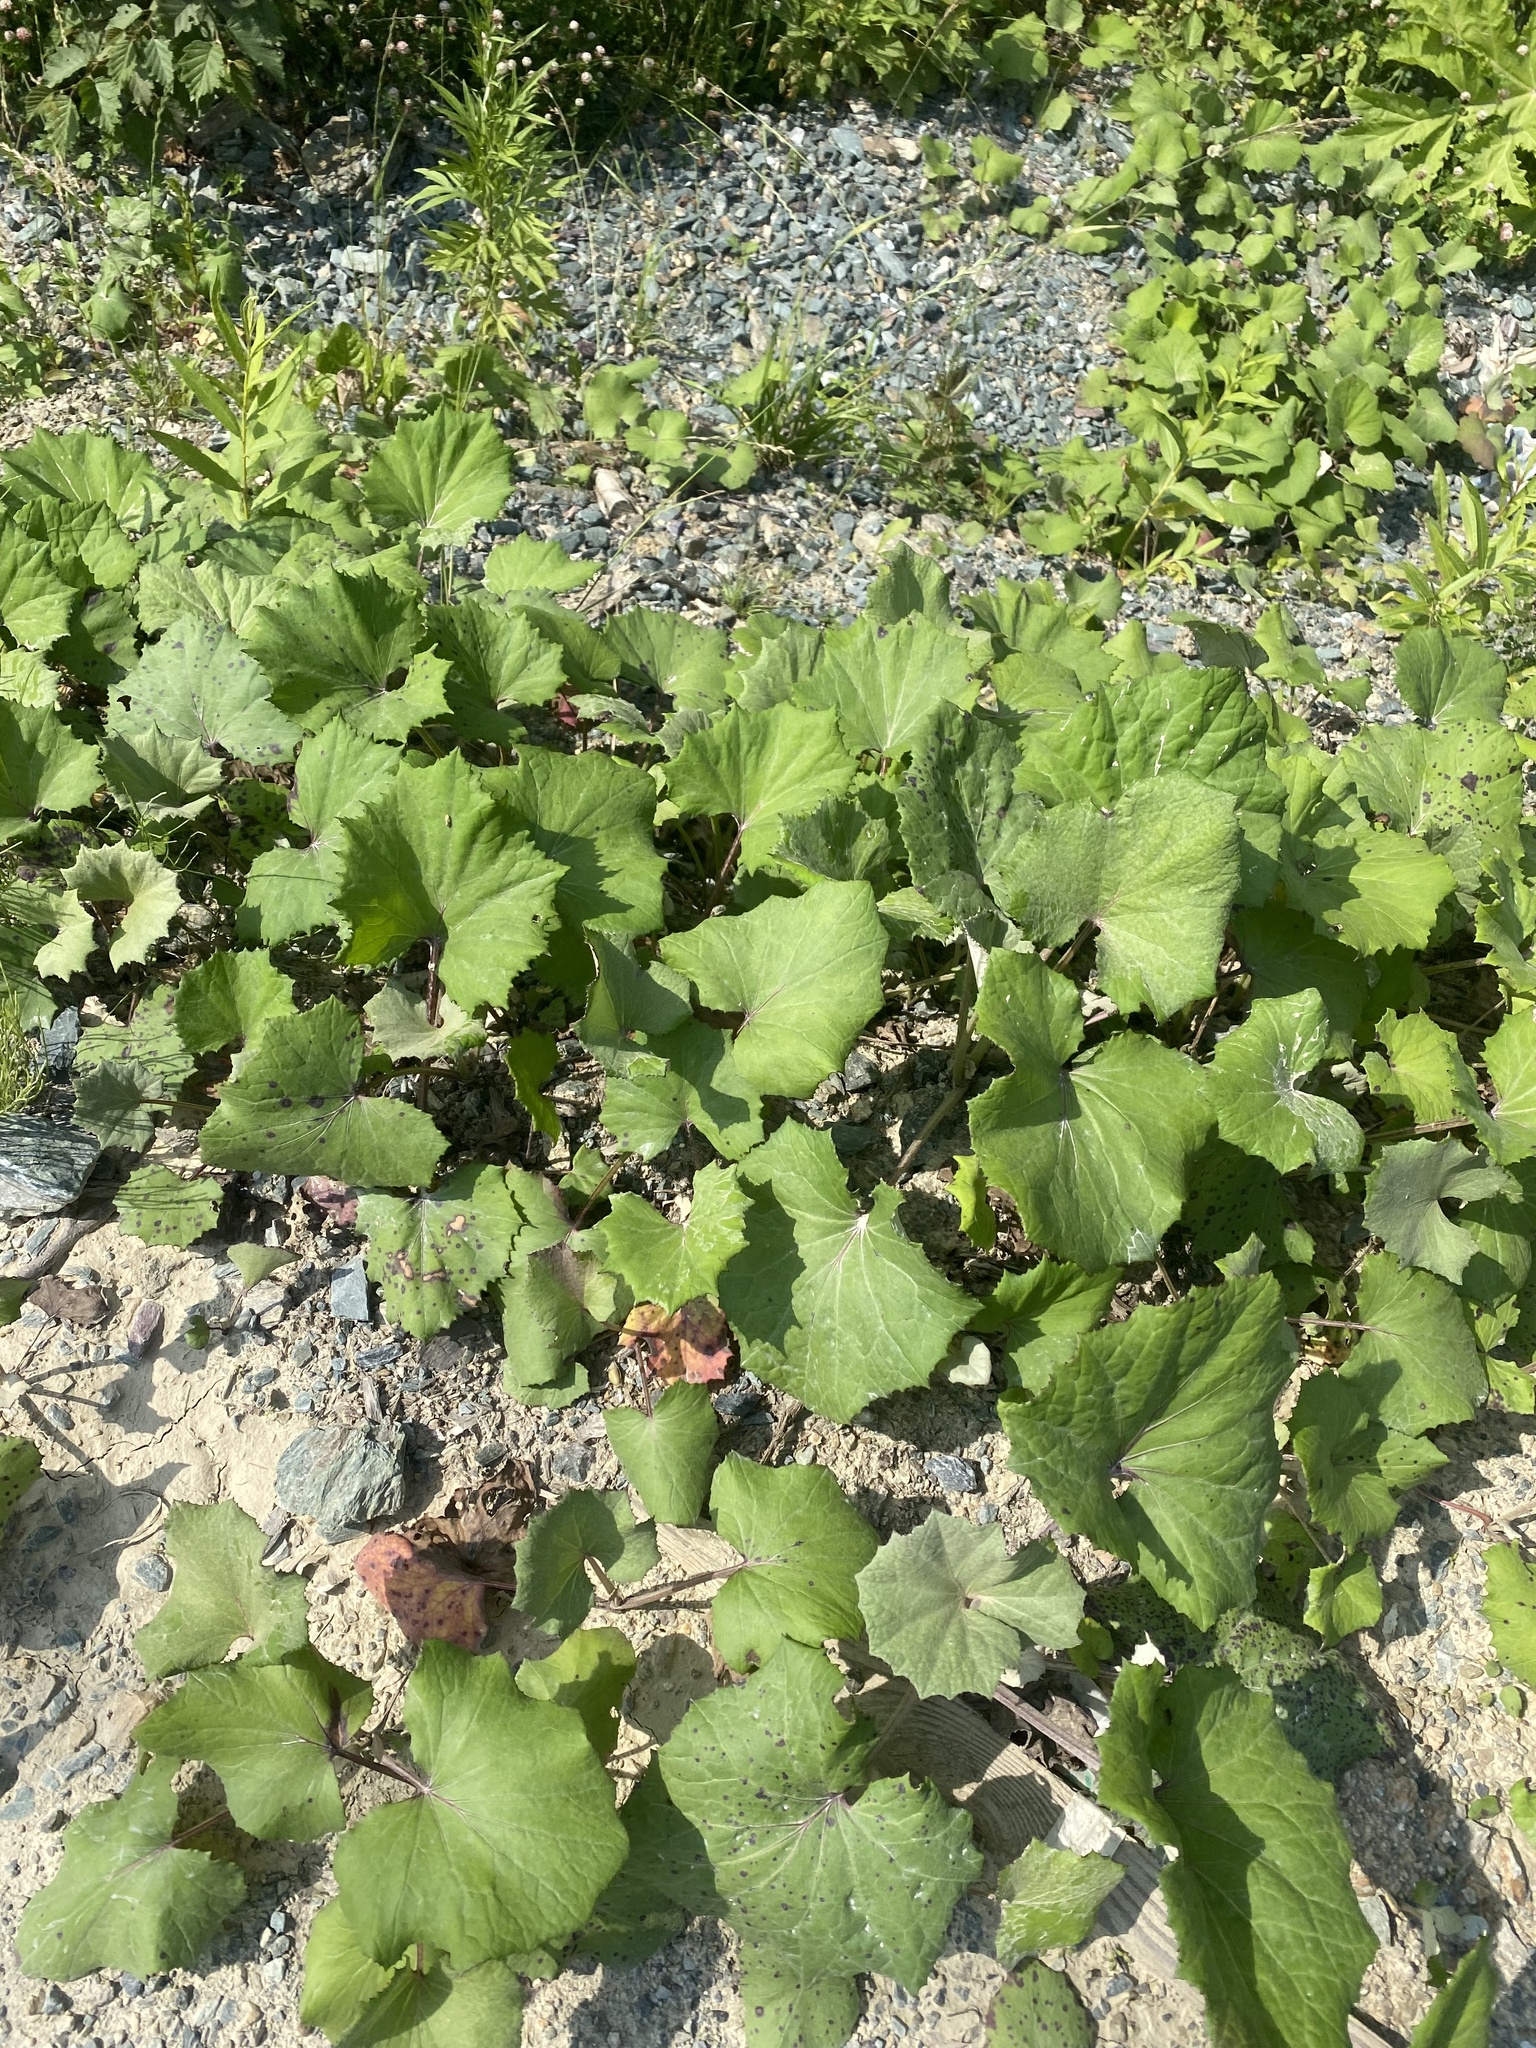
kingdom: Plantae
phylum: Tracheophyta
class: Magnoliopsida
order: Asterales
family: Asteraceae
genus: Tussilago
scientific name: Tussilago farfara
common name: Coltsfoot
